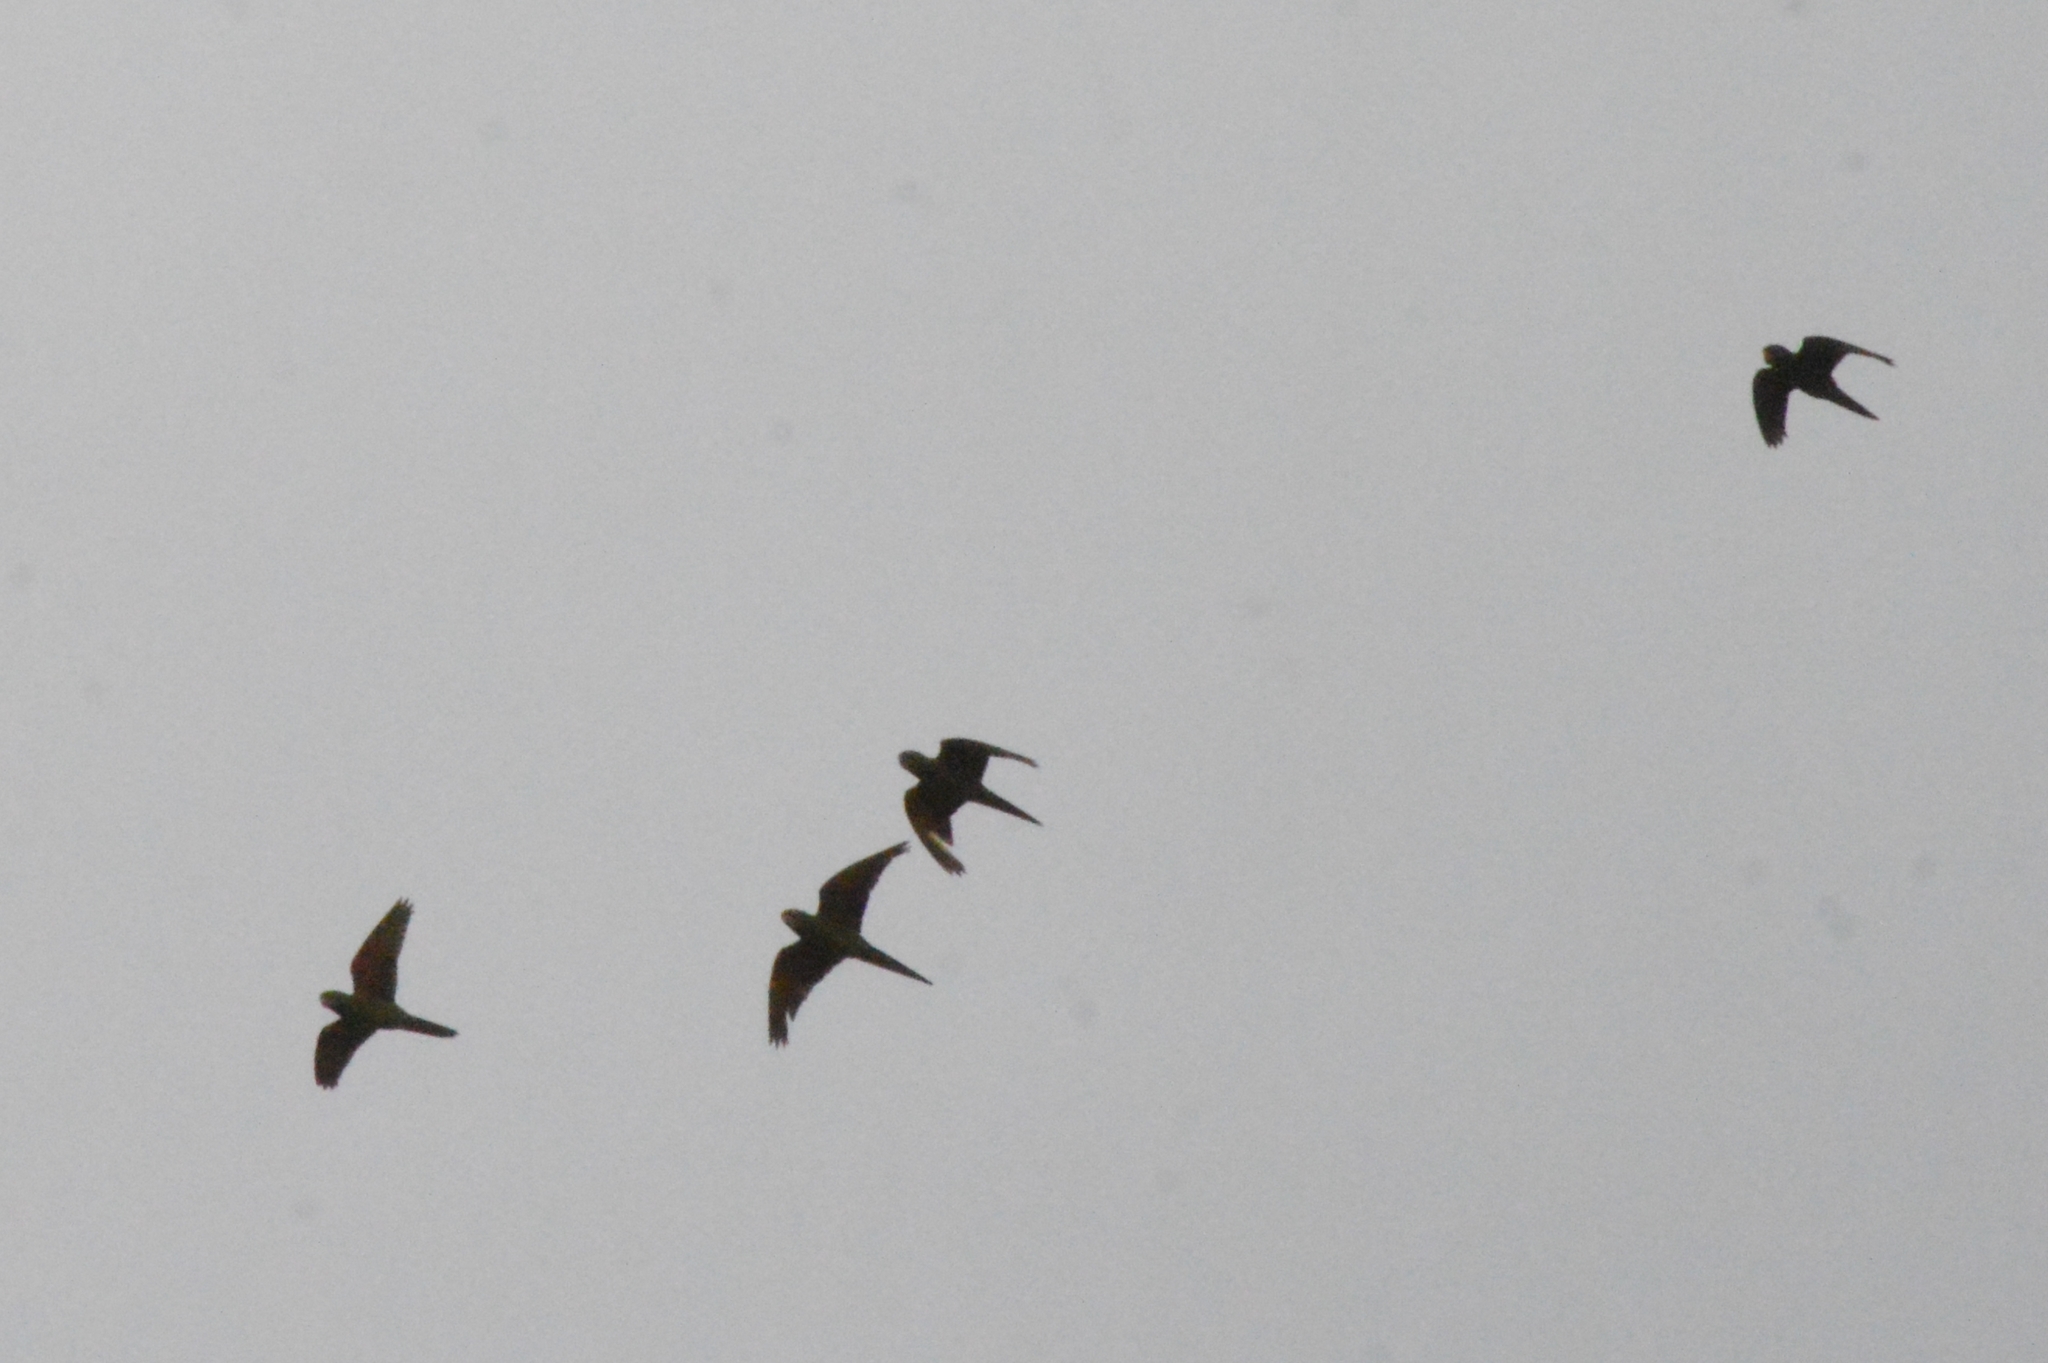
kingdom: Animalia
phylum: Chordata
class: Aves
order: Psittaciformes
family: Psittacidae
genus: Aratinga
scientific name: Aratinga leucophthalma
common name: White-eyed parakeet
